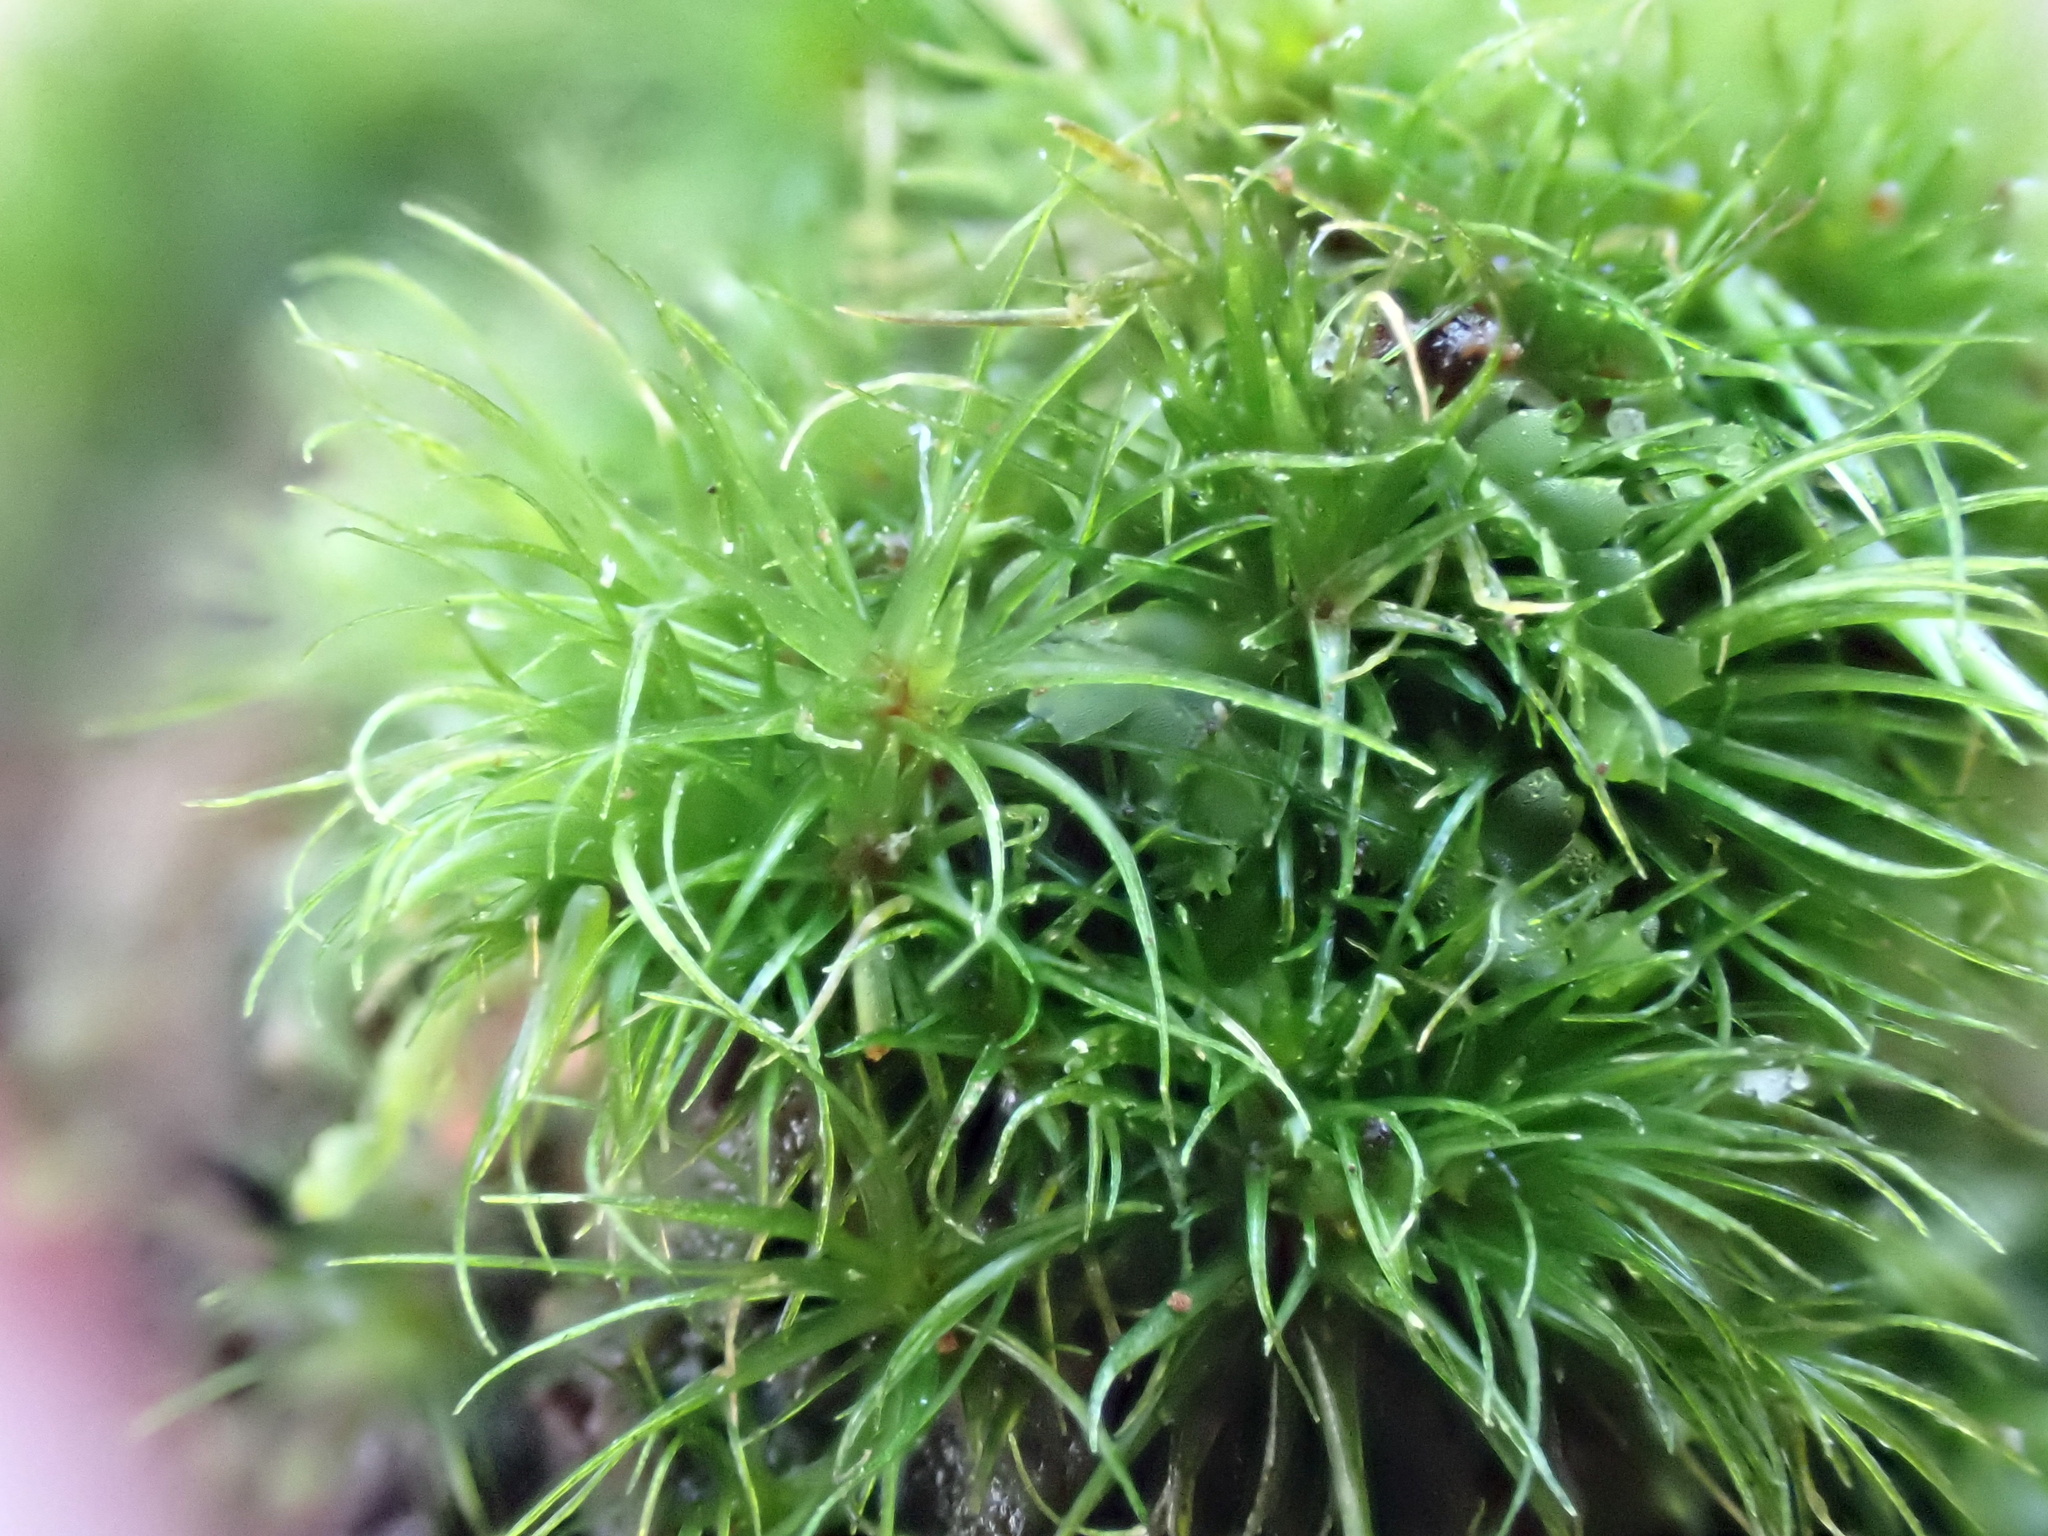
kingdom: Plantae
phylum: Bryophyta
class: Bryopsida
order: Dicranales
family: Leucobryaceae
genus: Campylopus
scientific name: Campylopus flexuosus
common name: Rusty swan-neck moss
